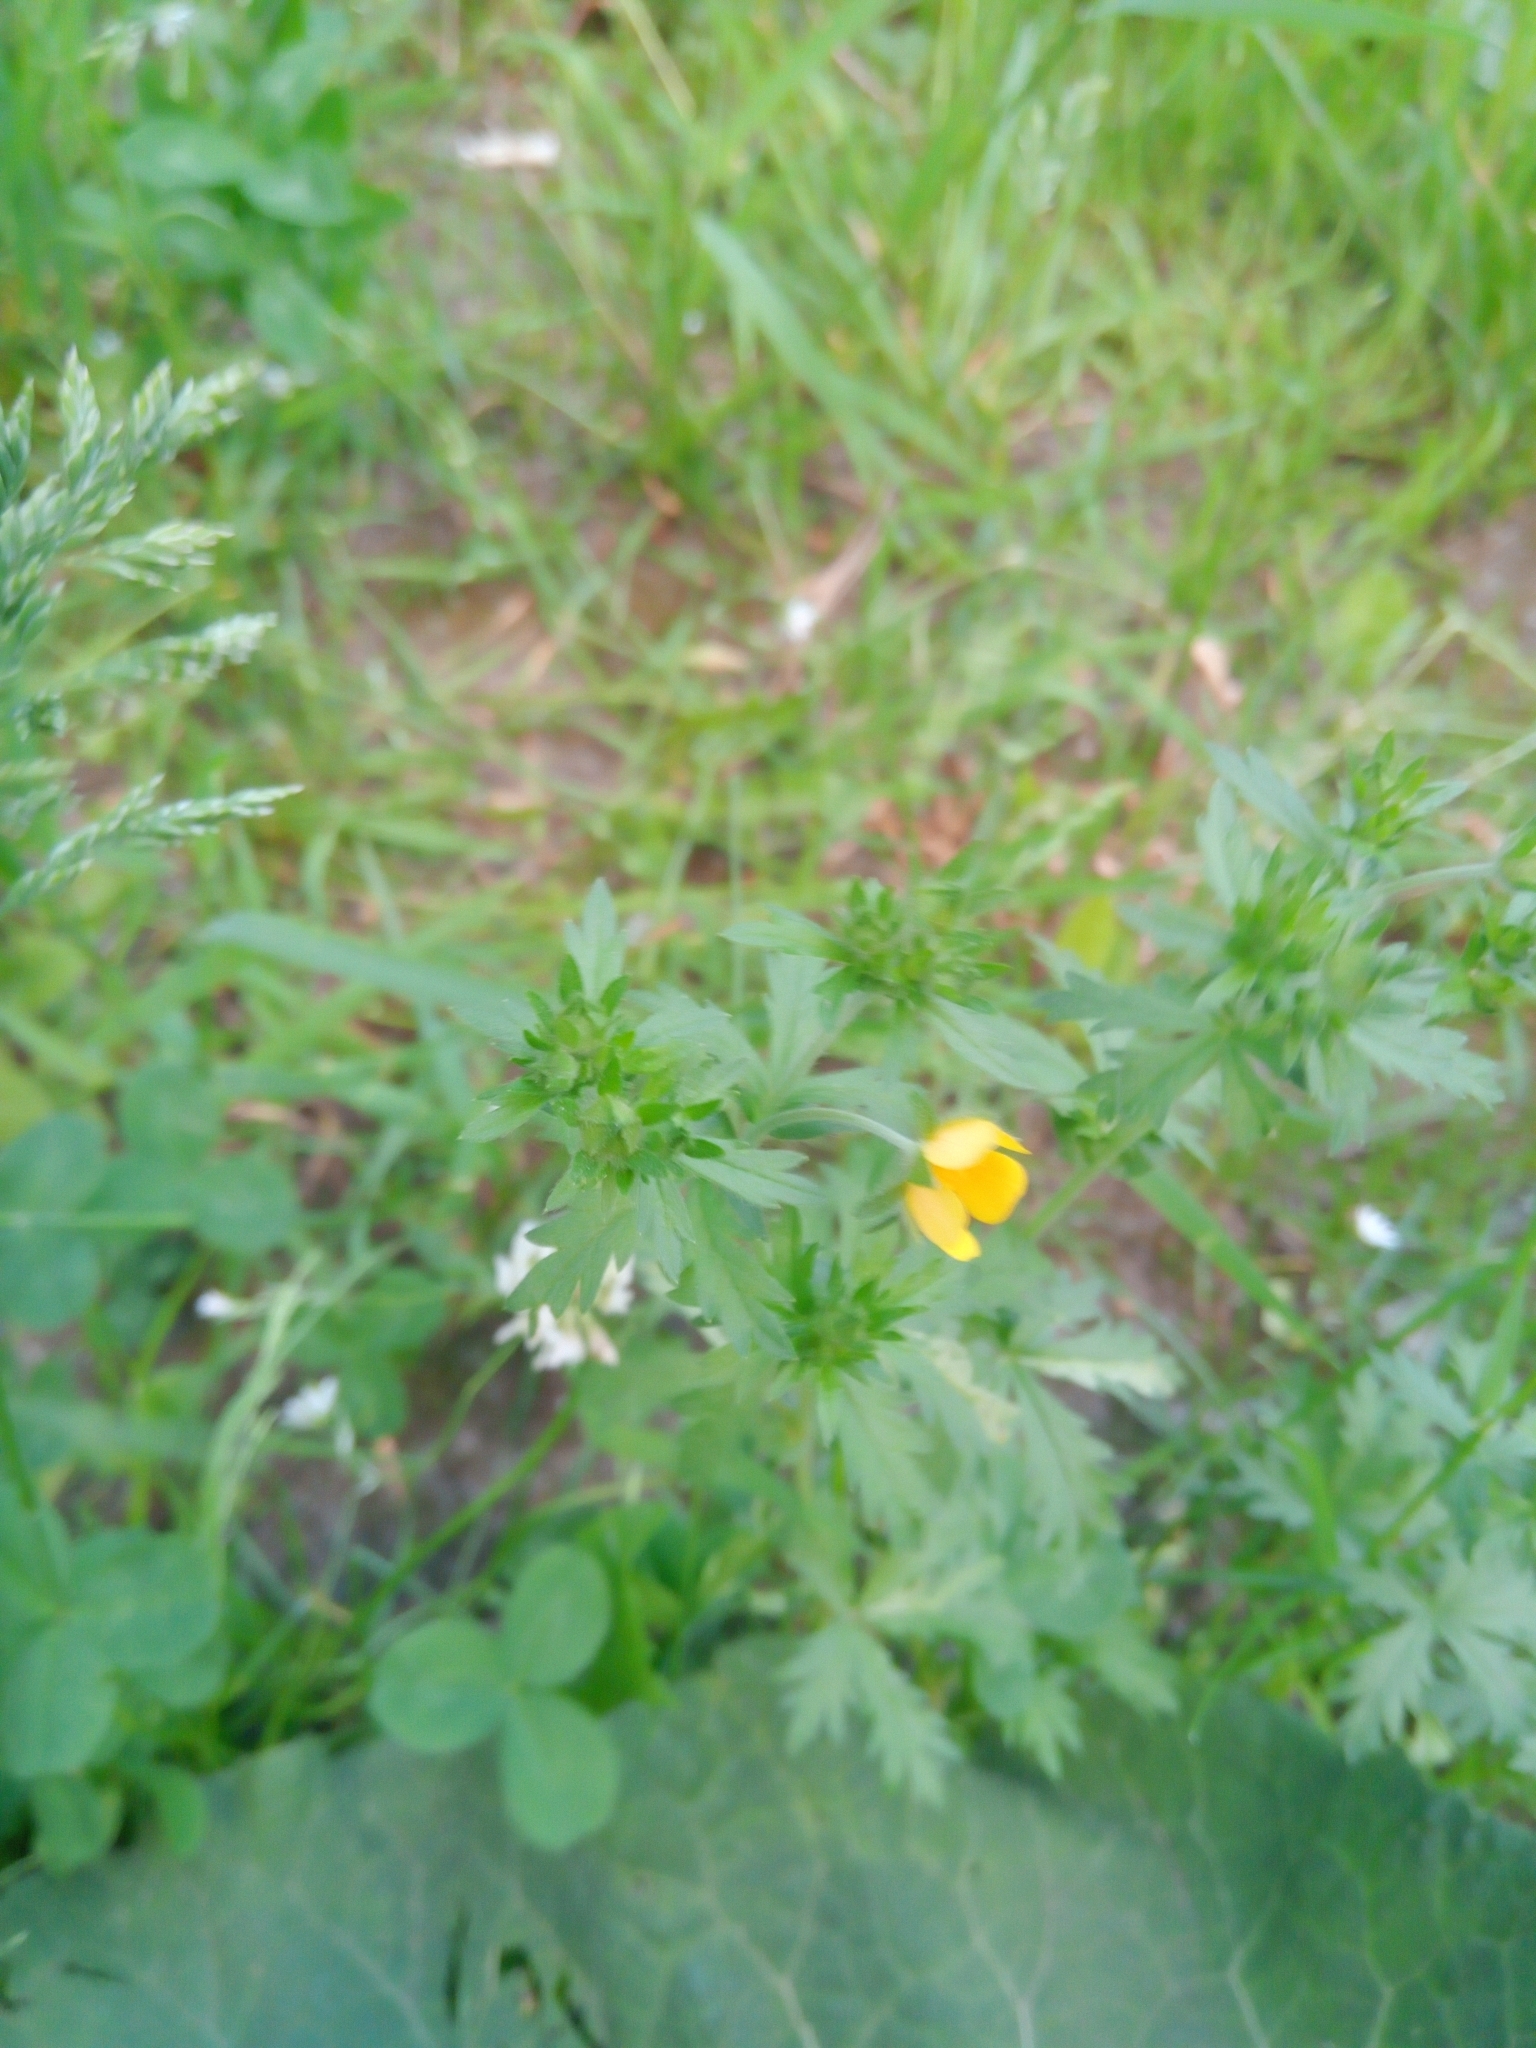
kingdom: Plantae
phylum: Tracheophyta
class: Magnoliopsida
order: Rosales
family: Rosaceae
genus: Potentilla
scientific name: Potentilla norvegica
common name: Ternate-leaved cinquefoil
